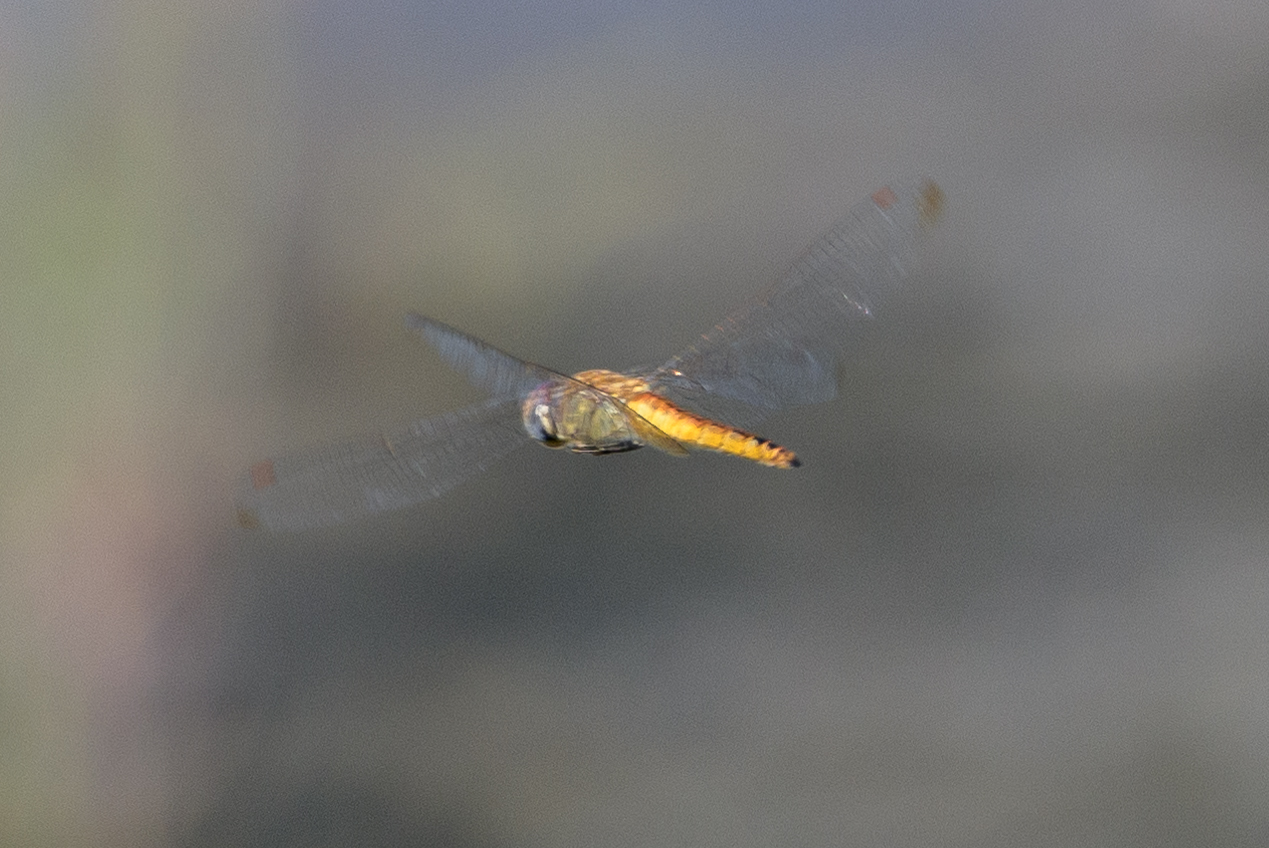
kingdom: Animalia
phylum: Arthropoda
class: Insecta
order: Odonata
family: Libellulidae
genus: Pantala
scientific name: Pantala flavescens
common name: Wandering glider
